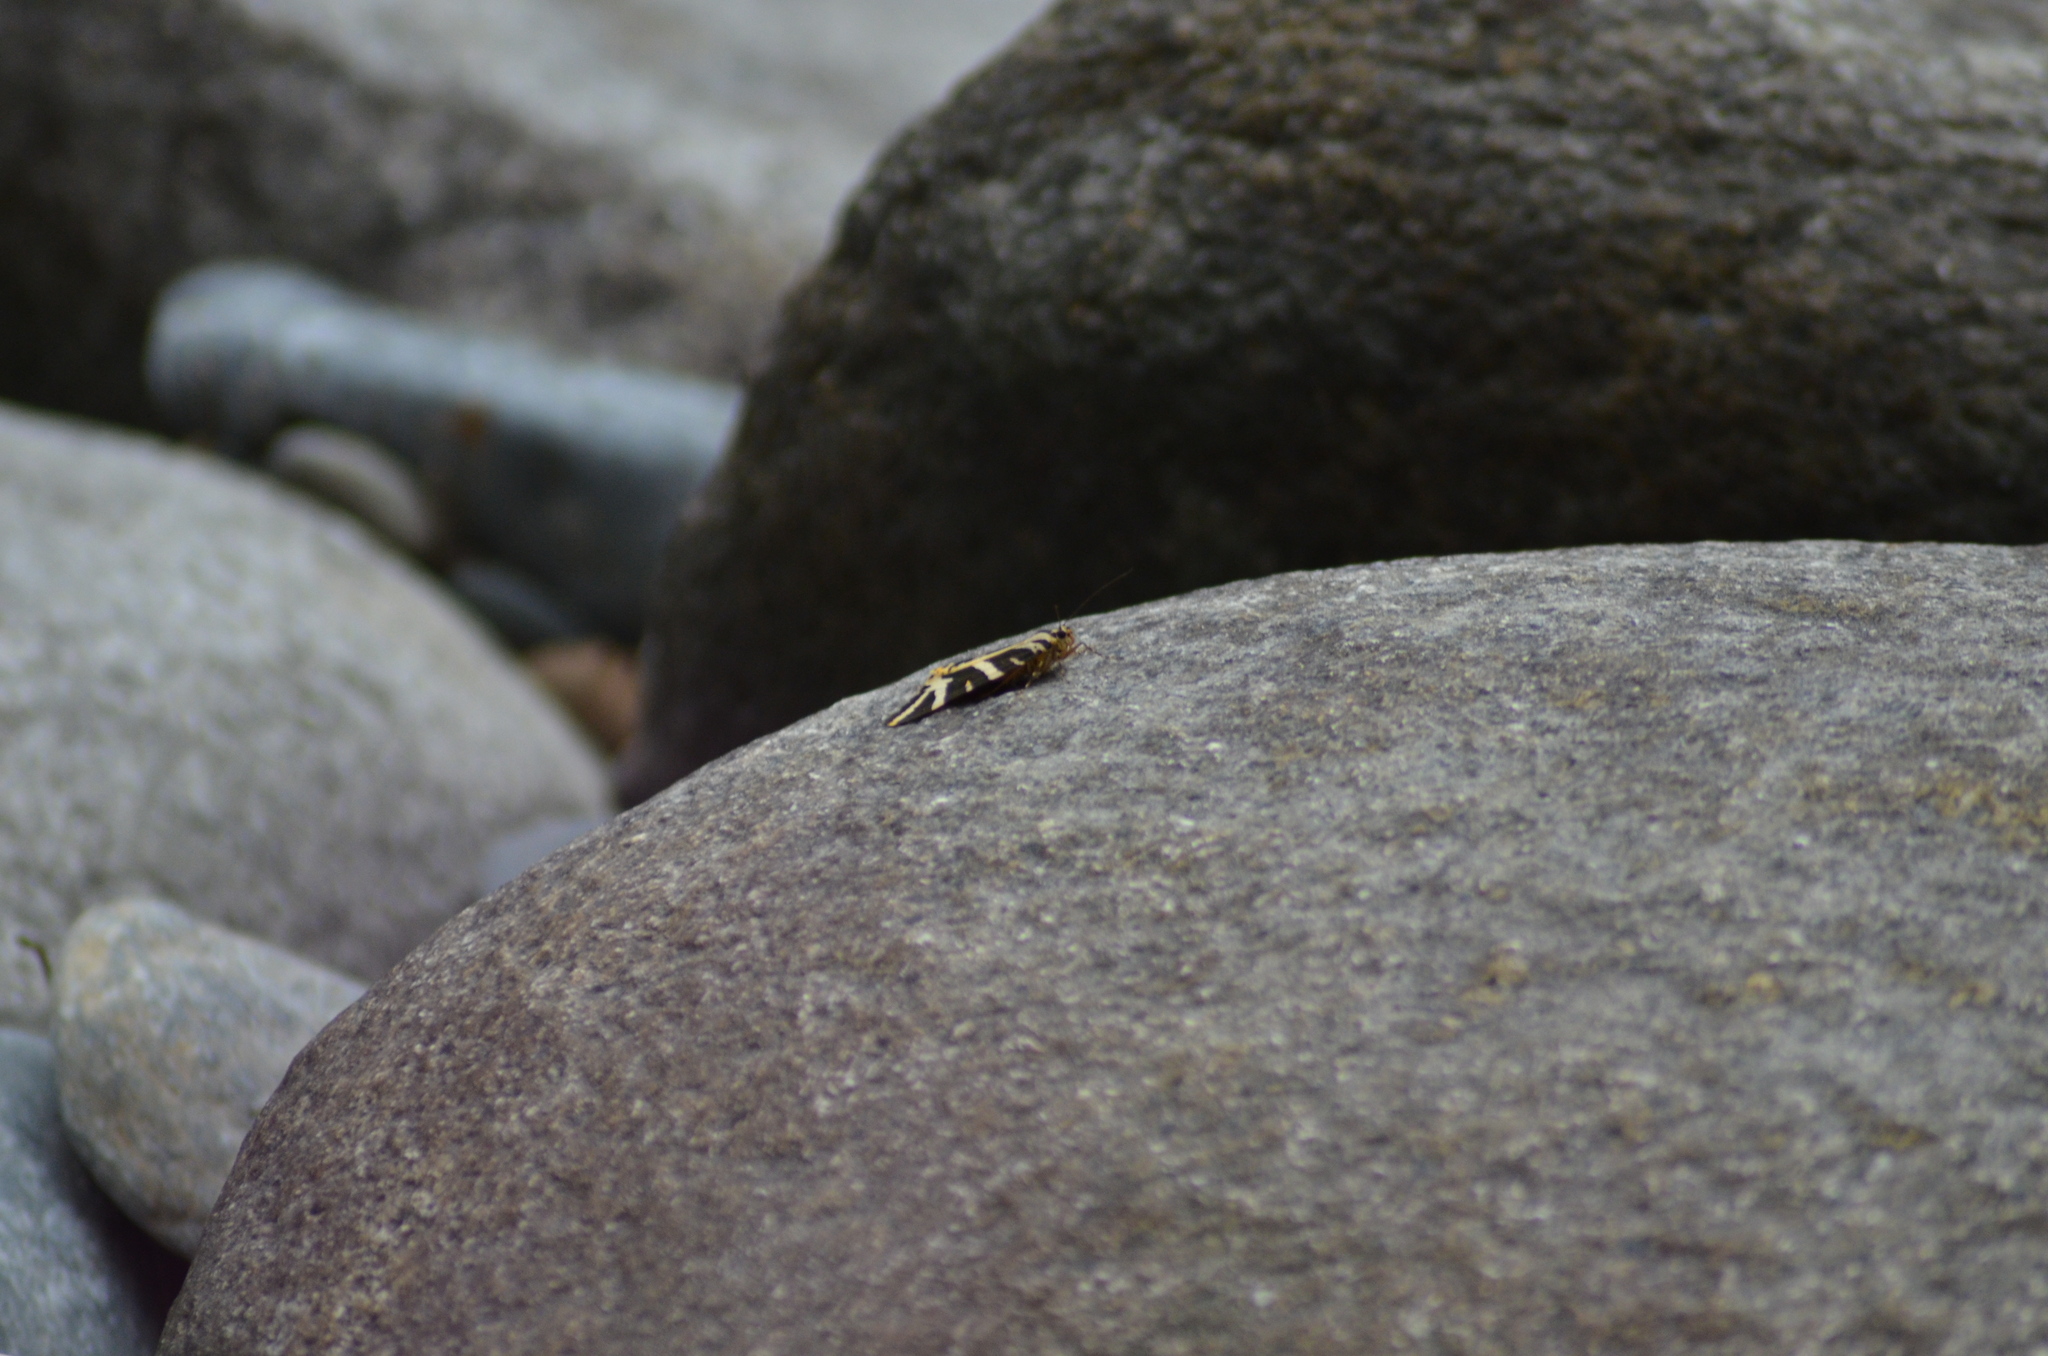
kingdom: Animalia
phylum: Arthropoda
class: Insecta
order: Lepidoptera
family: Erebidae
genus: Euplagia
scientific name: Euplagia quadripunctaria
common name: Jersey tiger
